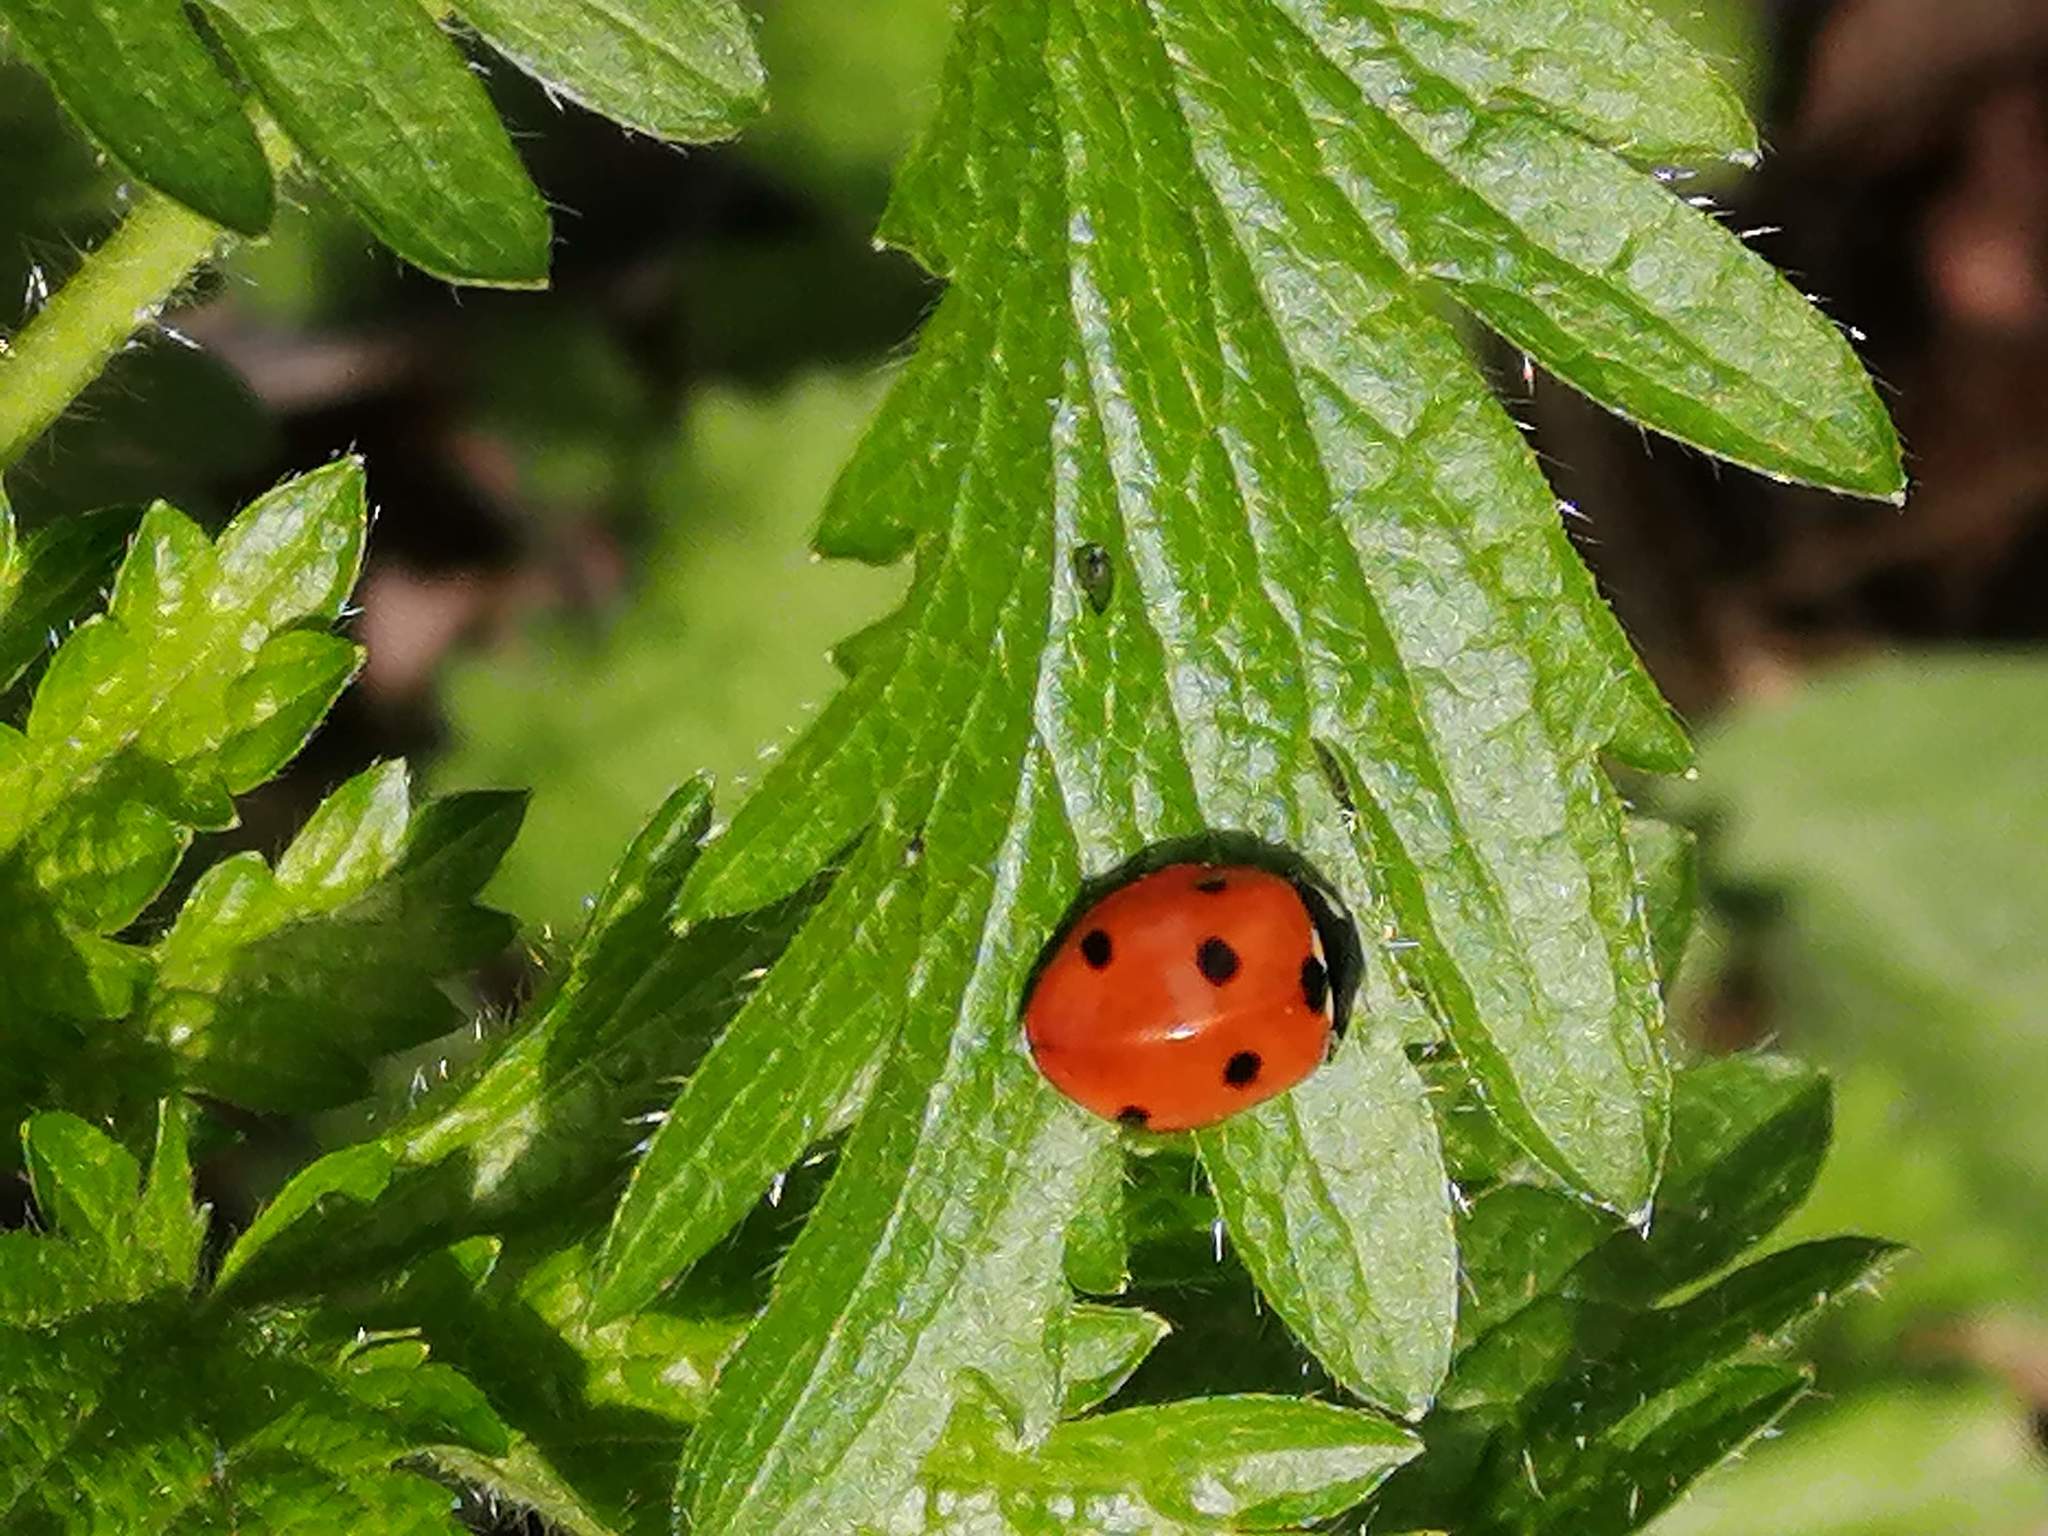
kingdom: Animalia
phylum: Arthropoda
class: Insecta
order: Coleoptera
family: Coccinellidae
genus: Coccinella
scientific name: Coccinella septempunctata
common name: Sevenspotted lady beetle
